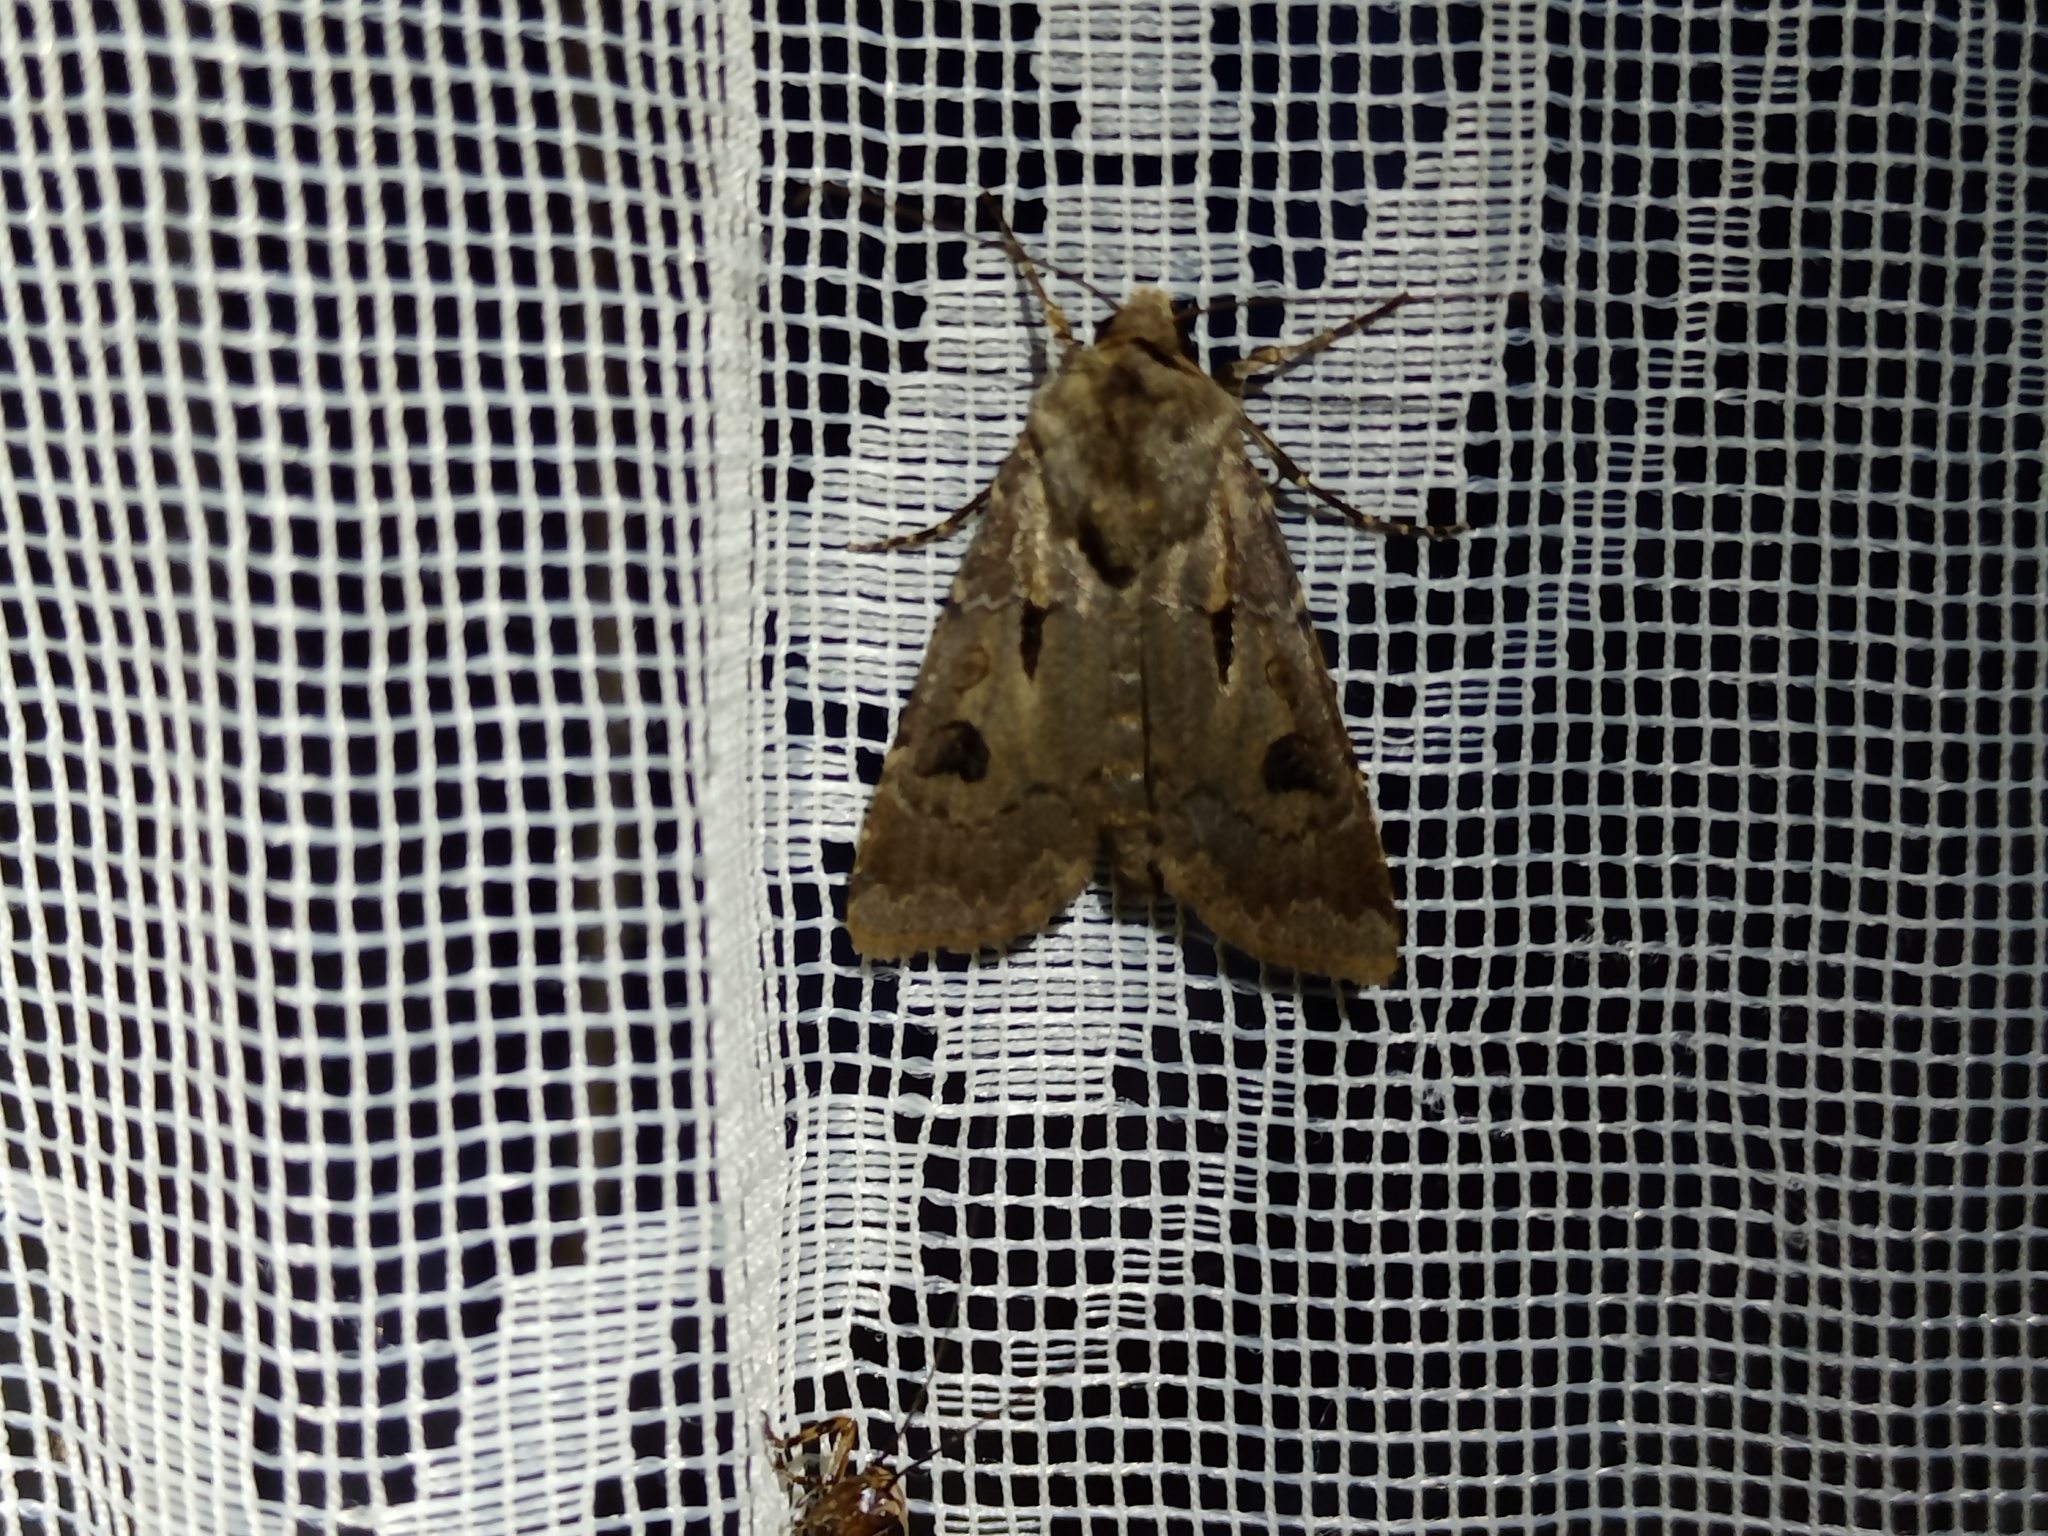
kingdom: Animalia
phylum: Arthropoda
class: Insecta
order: Lepidoptera
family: Noctuidae
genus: Agrotis
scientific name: Agrotis exclamationis
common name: Heart and dart
